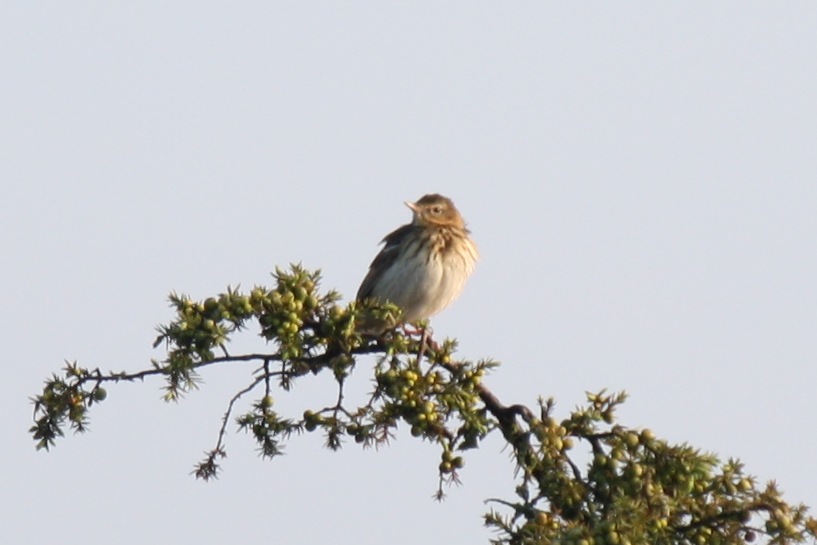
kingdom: Animalia
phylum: Chordata
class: Aves
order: Passeriformes
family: Motacillidae
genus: Anthus
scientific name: Anthus trivialis
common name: Tree pipit
